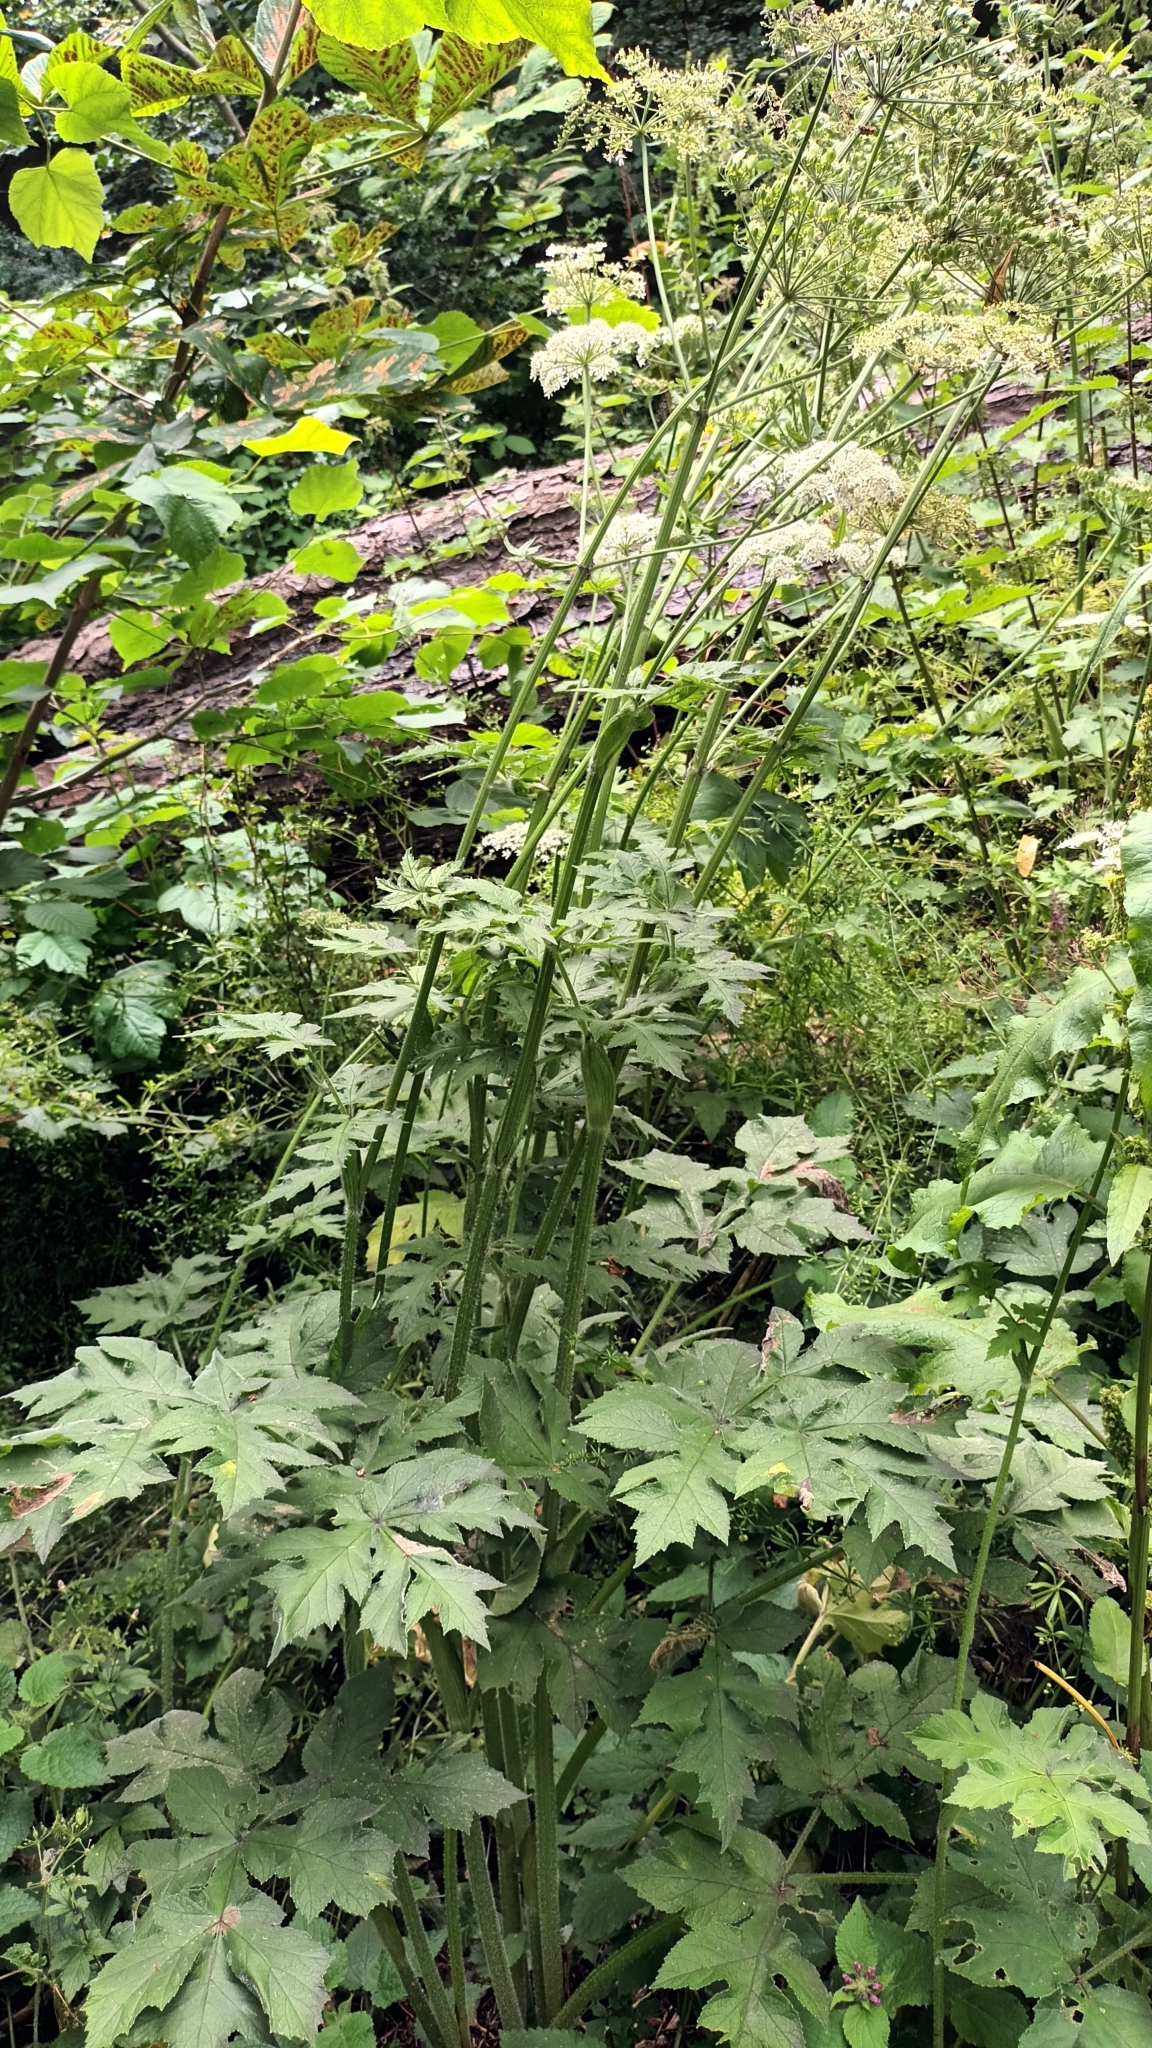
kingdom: Plantae
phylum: Tracheophyta
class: Magnoliopsida
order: Apiales
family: Apiaceae
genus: Heracleum
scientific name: Heracleum sphondylium
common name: Hogweed
